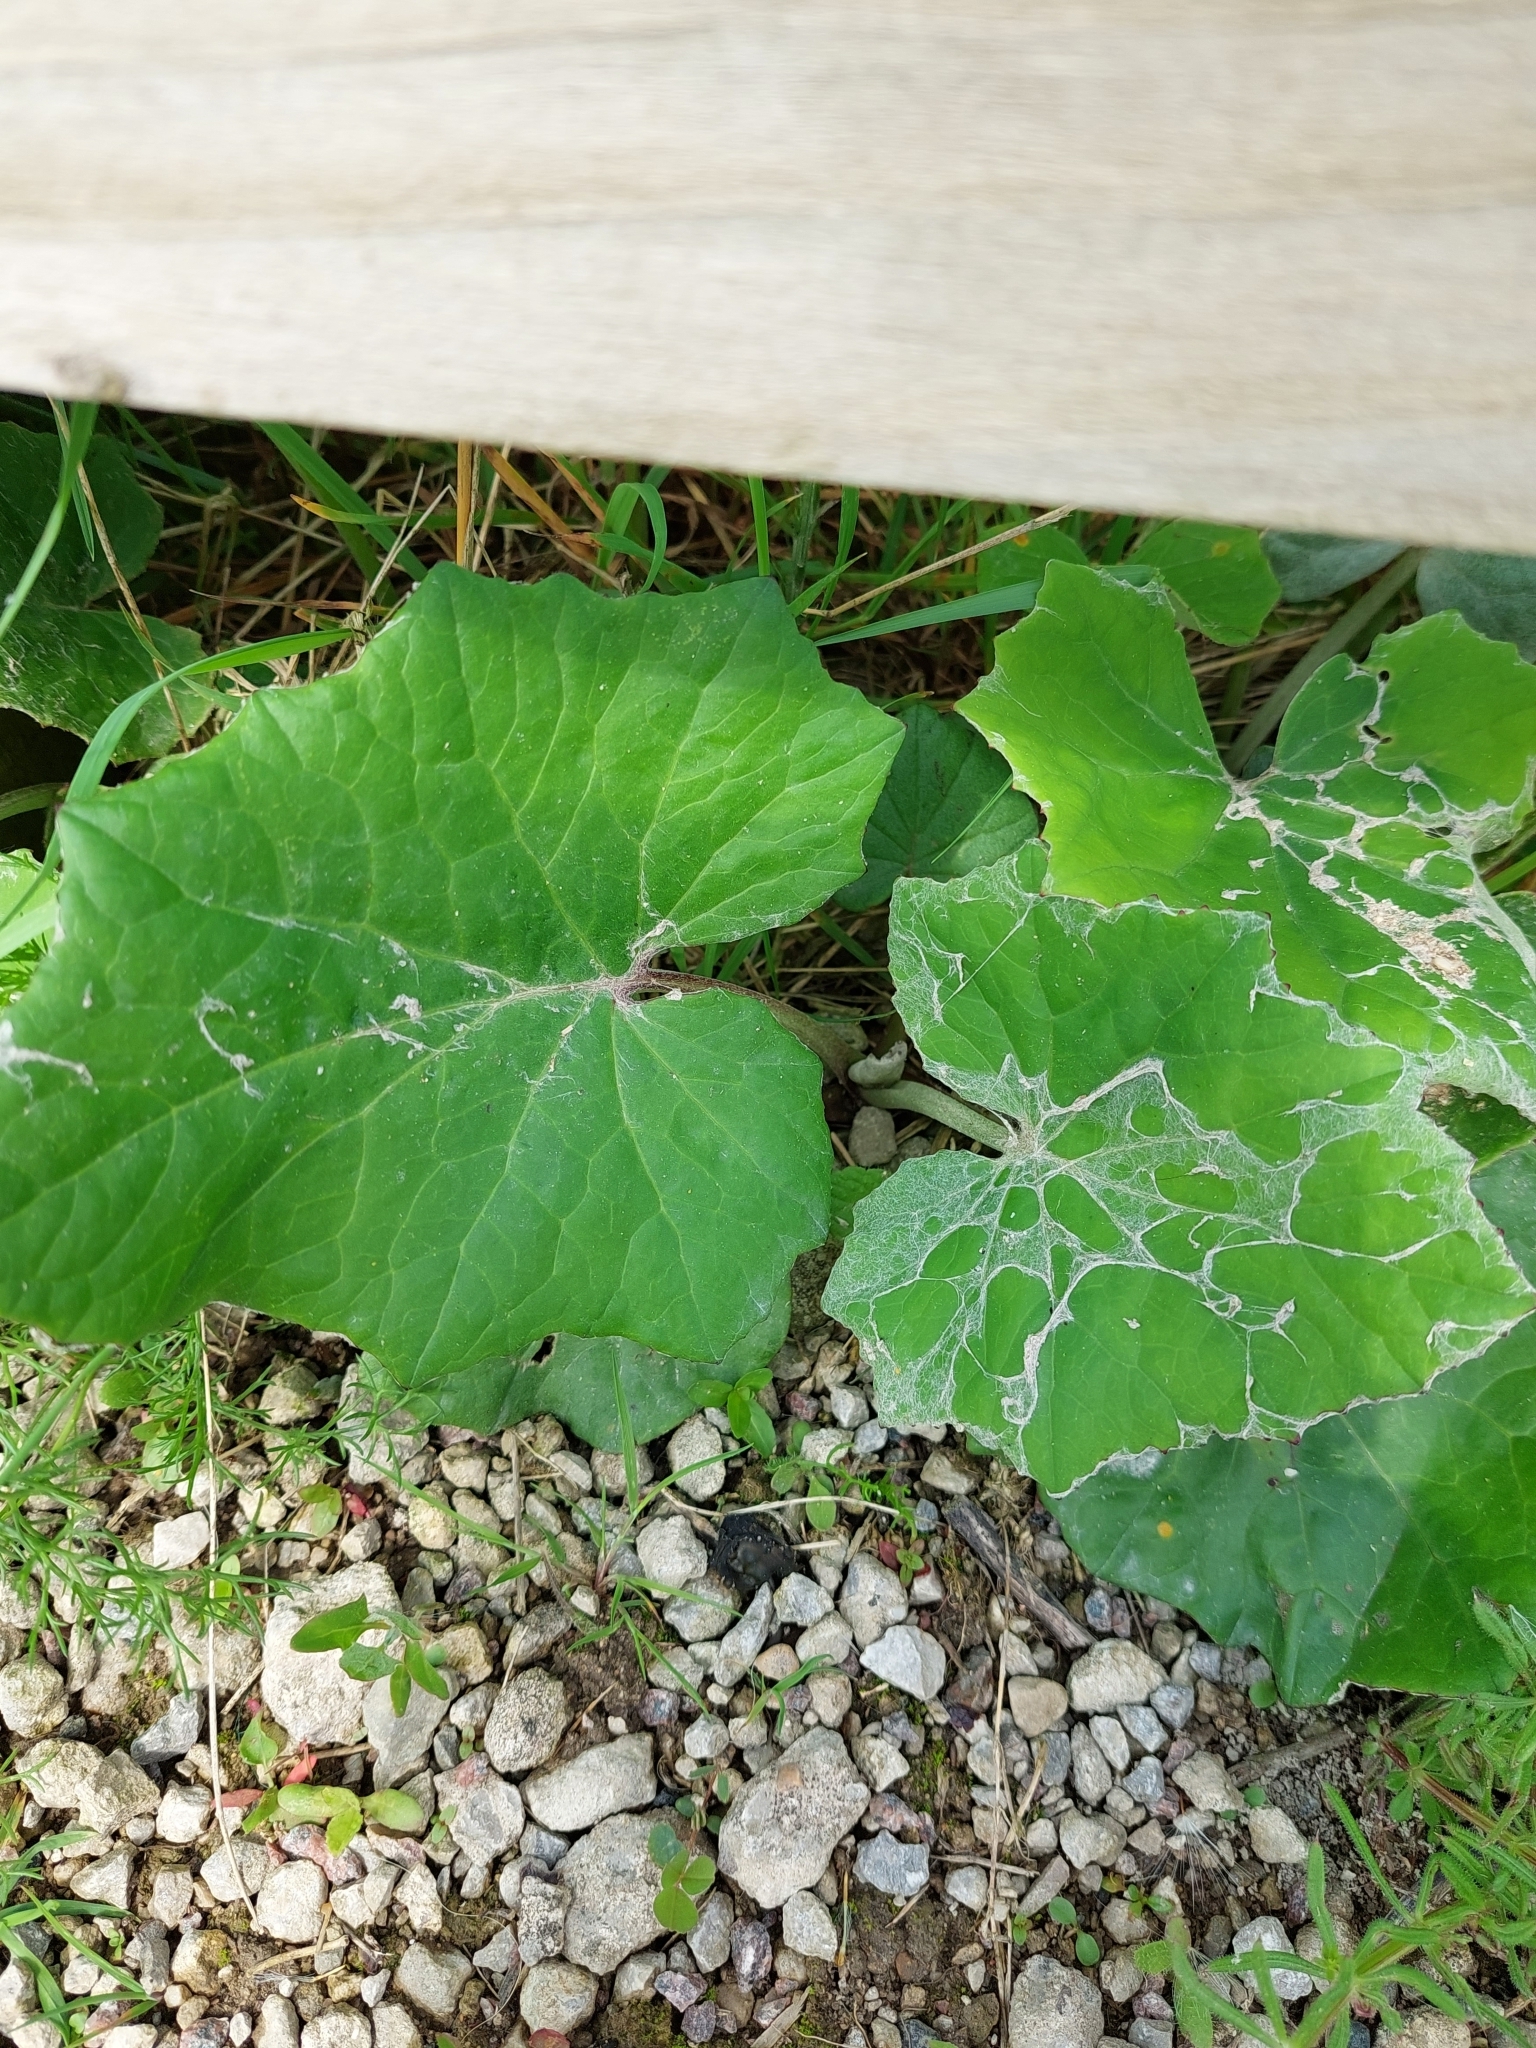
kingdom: Plantae
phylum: Tracheophyta
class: Magnoliopsida
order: Asterales
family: Asteraceae
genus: Tussilago
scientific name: Tussilago farfara
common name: Coltsfoot
